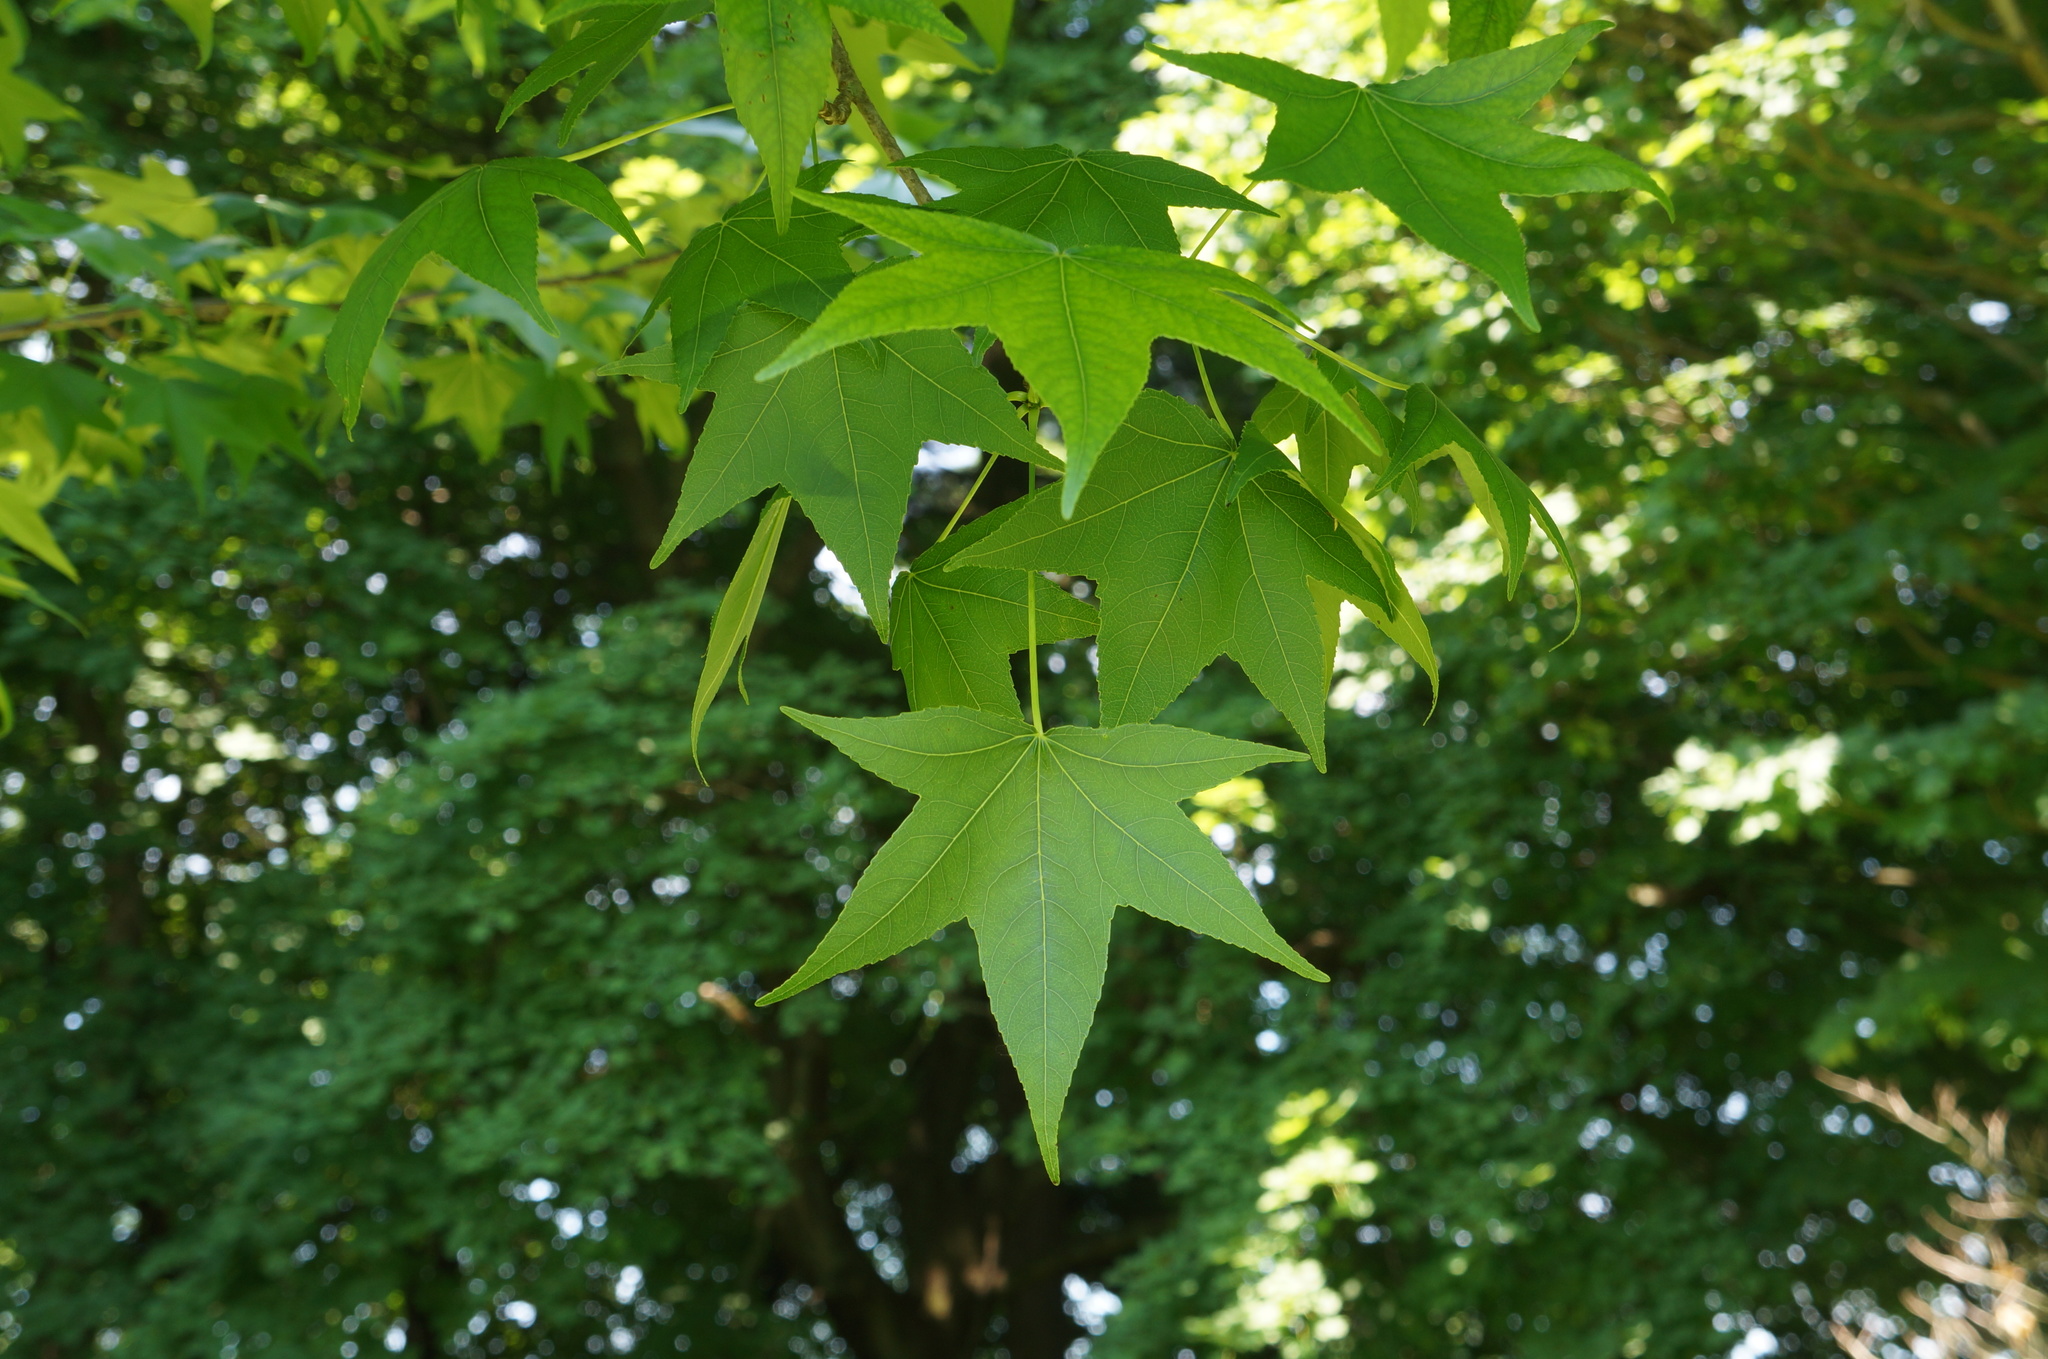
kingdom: Plantae
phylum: Tracheophyta
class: Magnoliopsida
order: Saxifragales
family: Altingiaceae
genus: Liquidambar
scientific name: Liquidambar styraciflua
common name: Sweet gum
